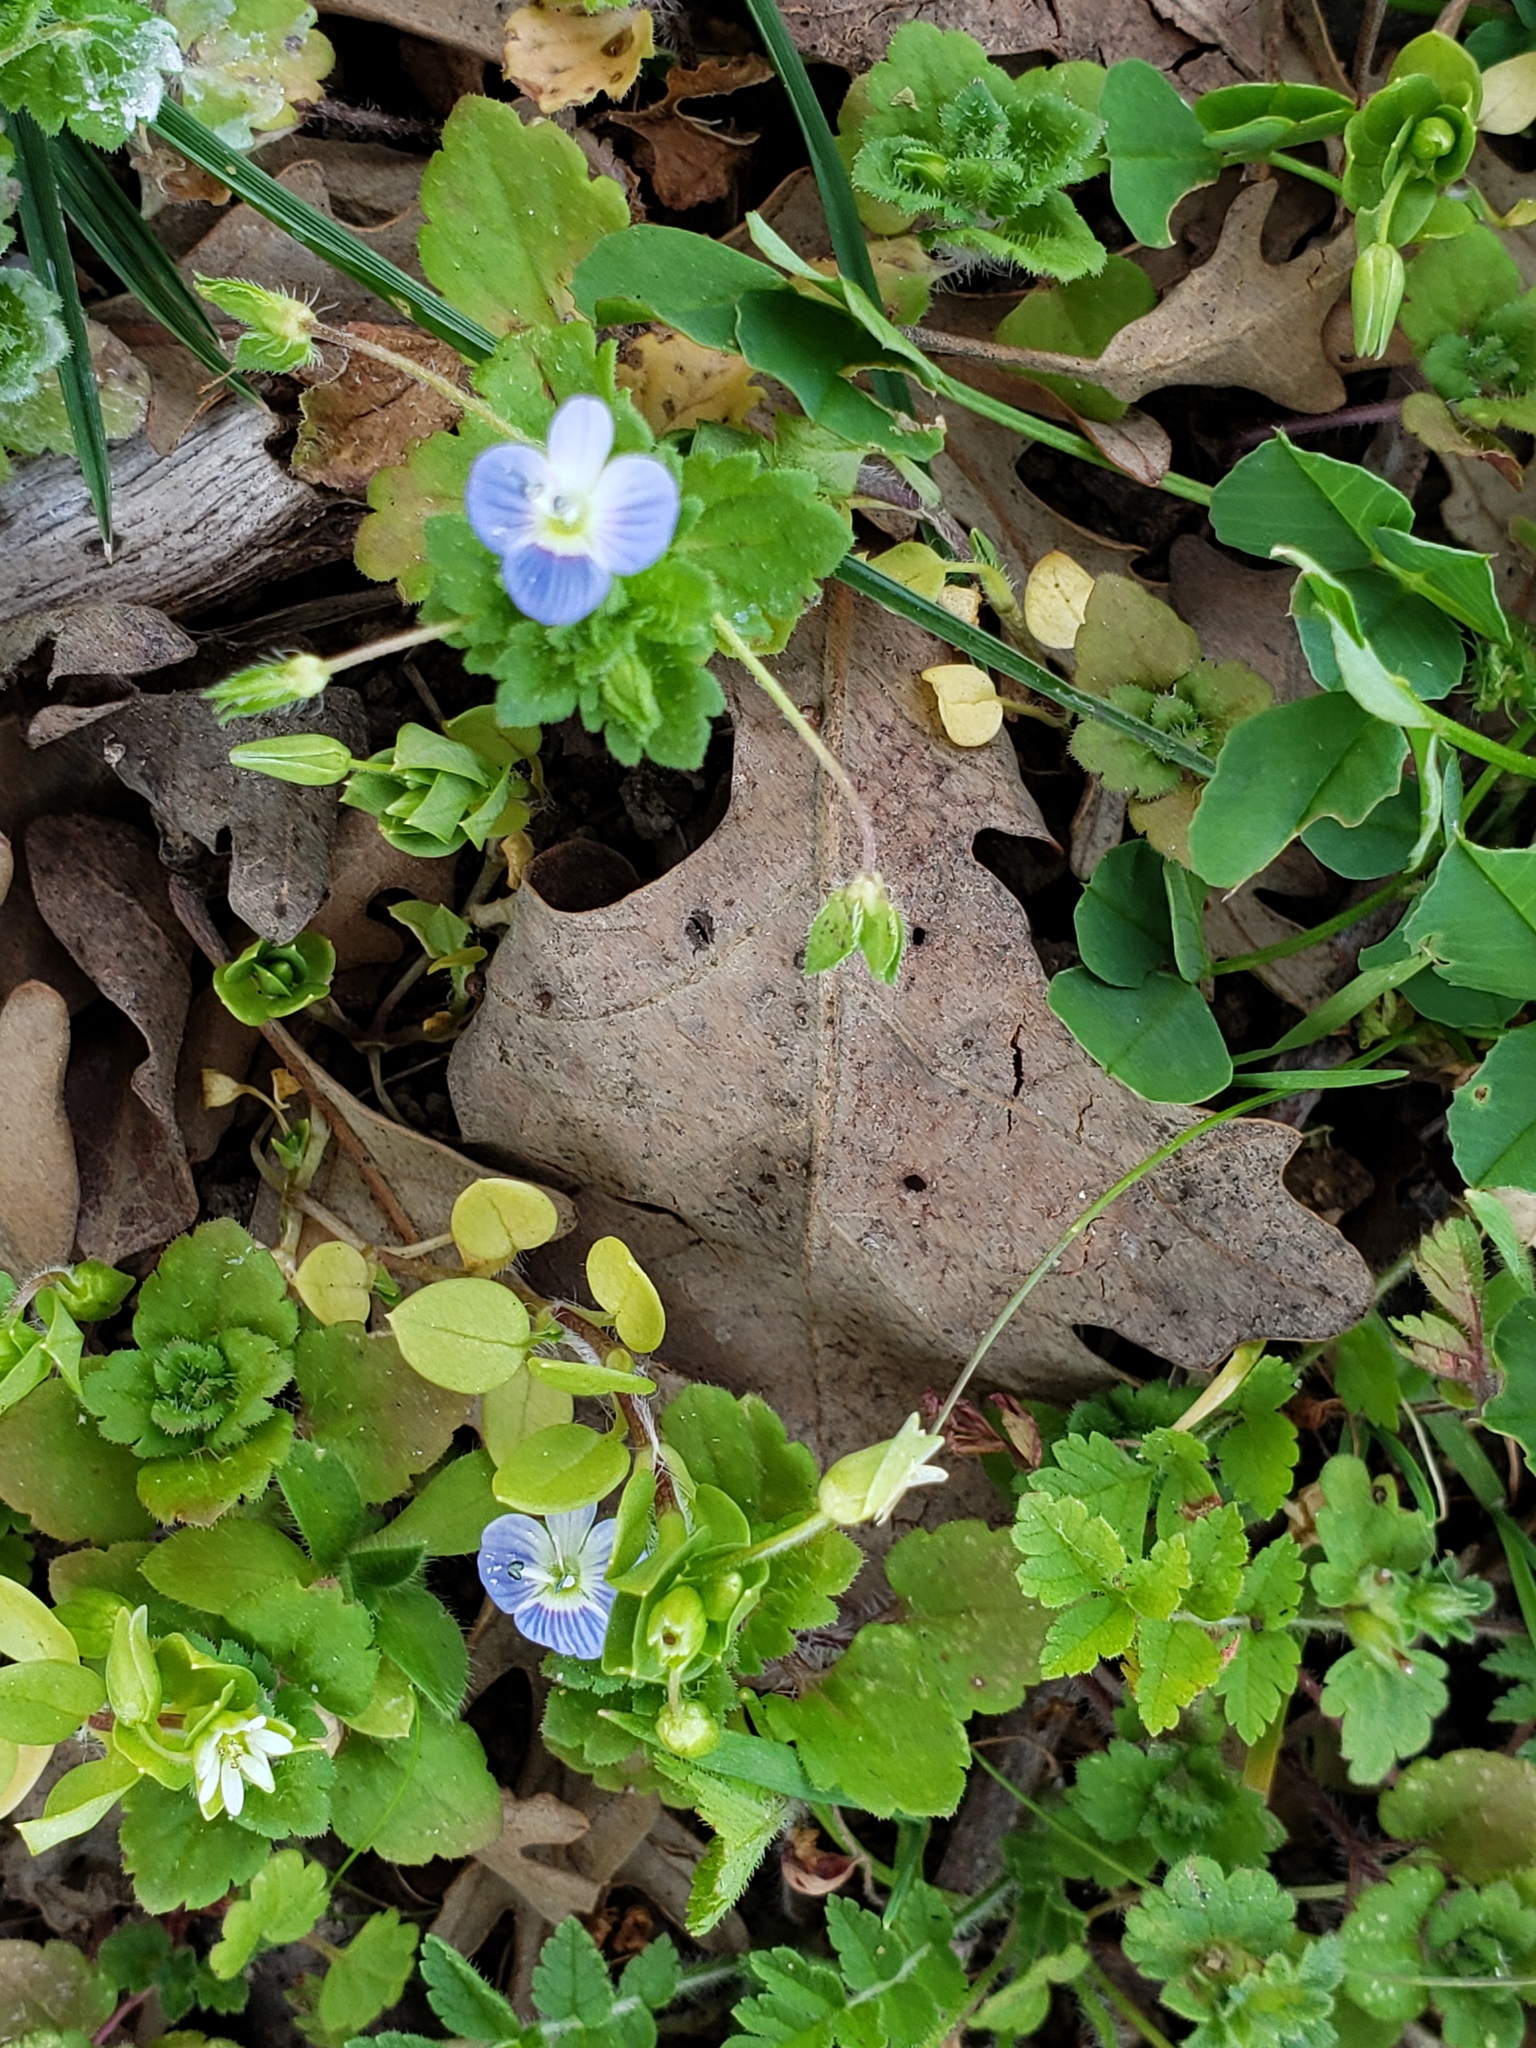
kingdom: Plantae
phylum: Tracheophyta
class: Magnoliopsida
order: Lamiales
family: Plantaginaceae
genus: Veronica
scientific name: Veronica persica
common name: Common field-speedwell
